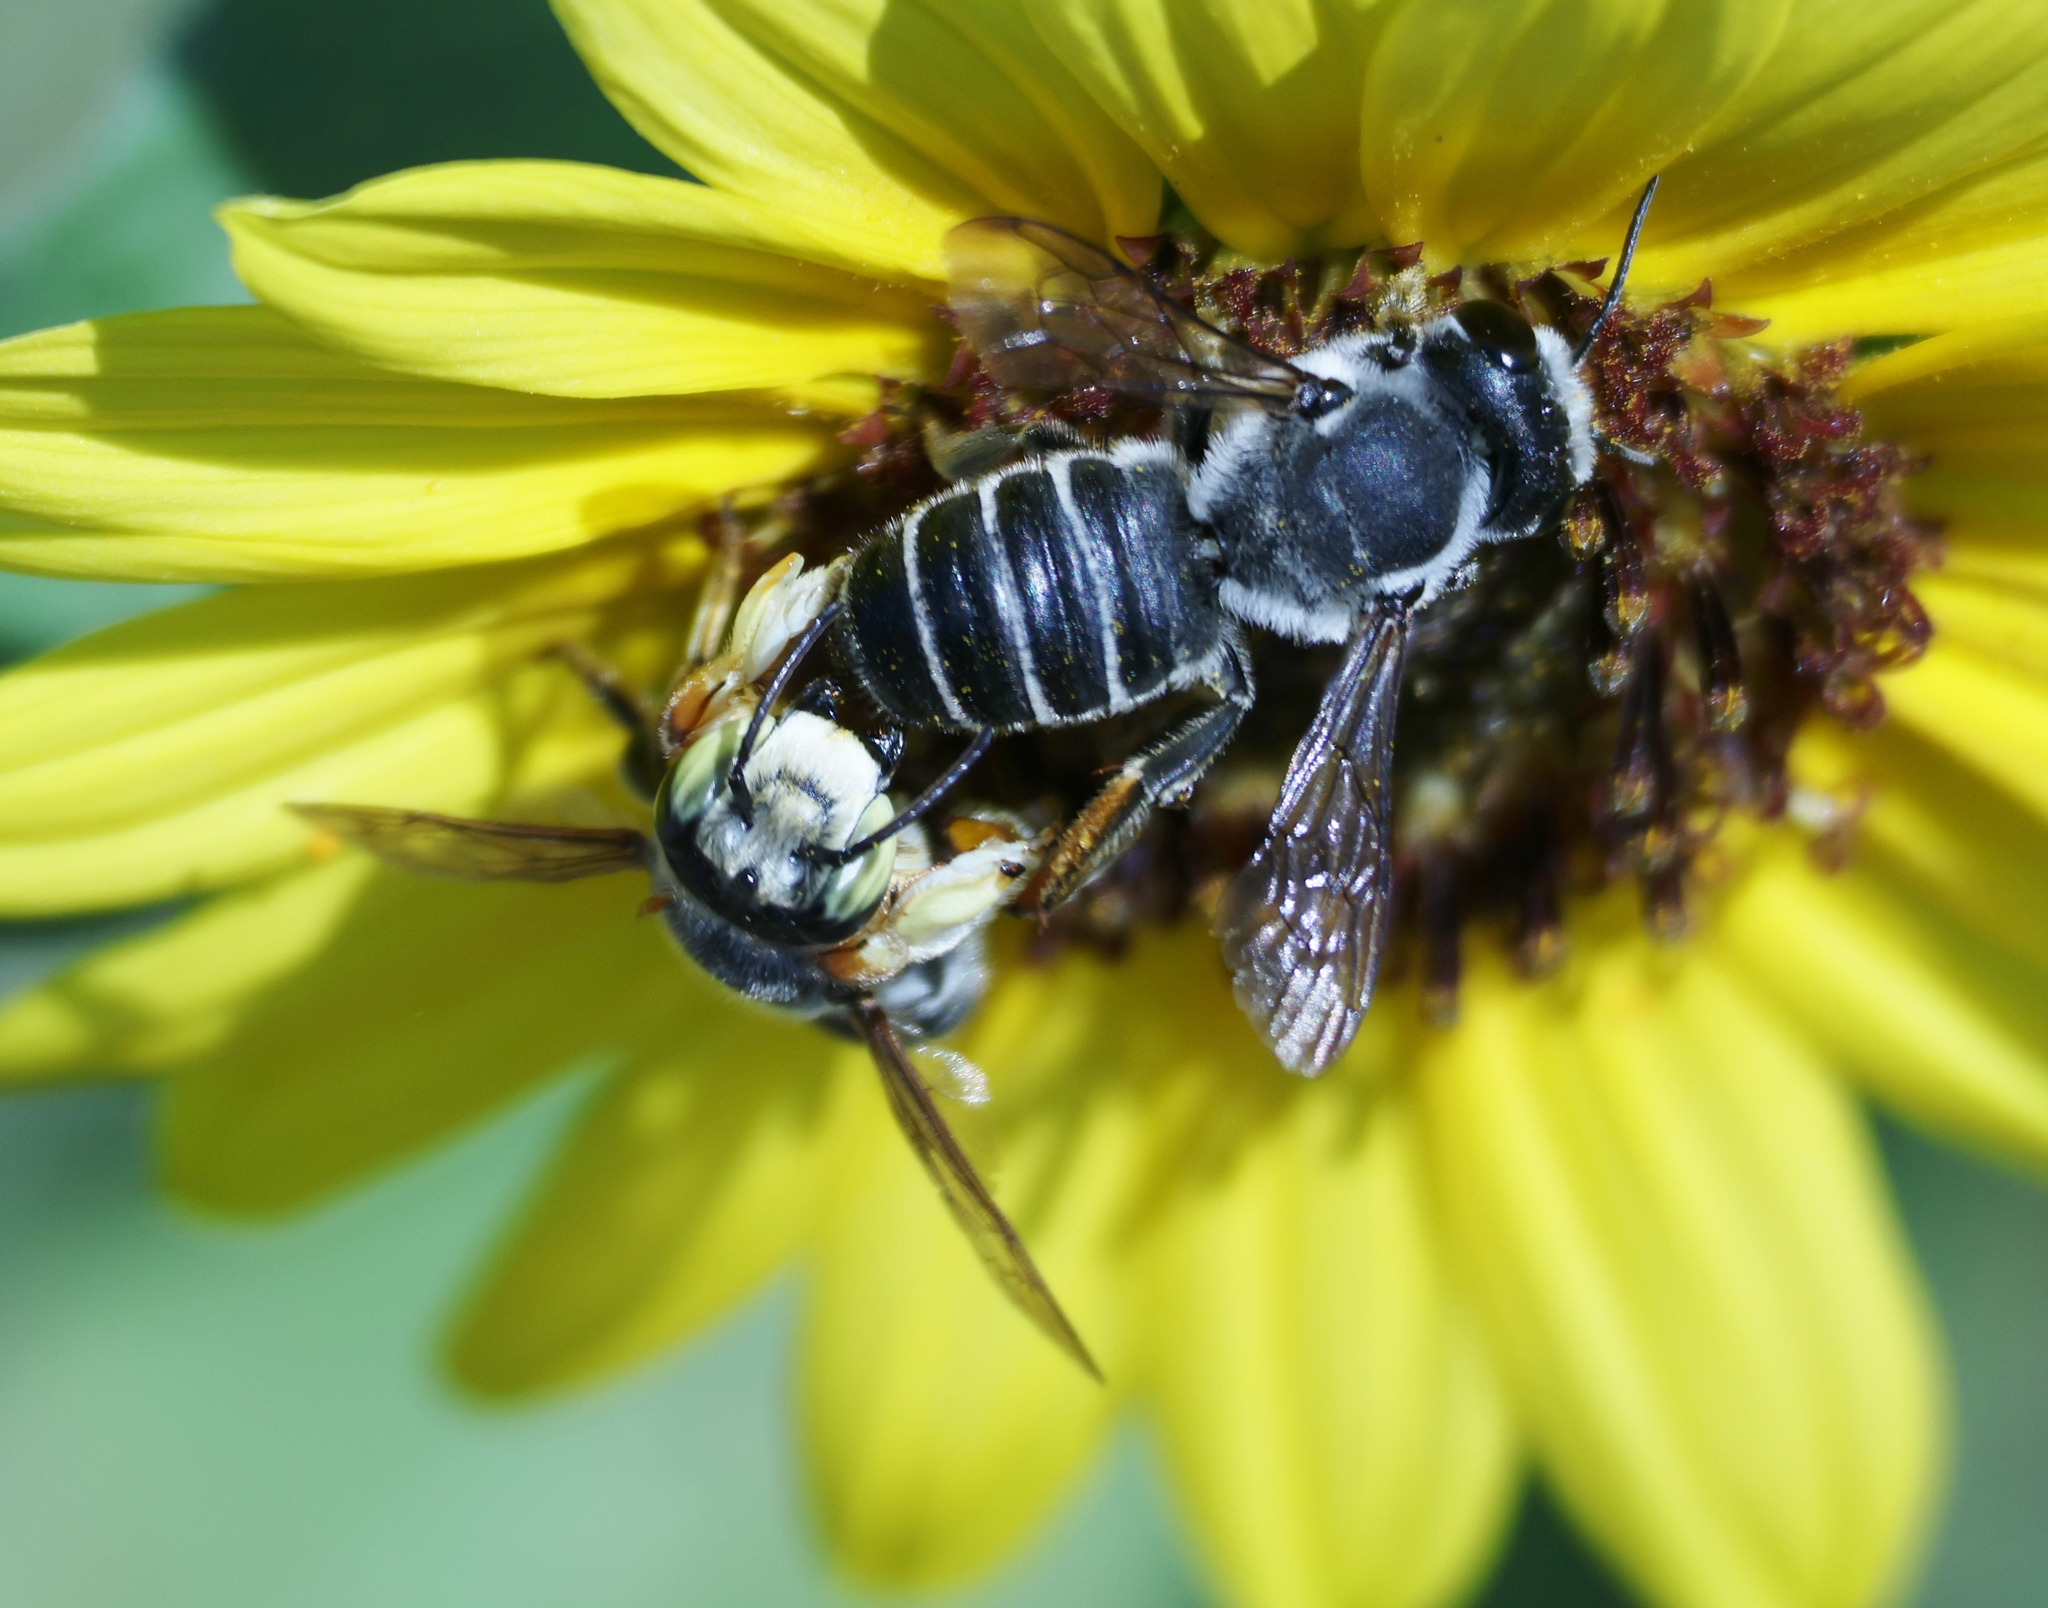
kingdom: Animalia
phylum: Arthropoda
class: Insecta
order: Hymenoptera
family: Megachilidae
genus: Megachile
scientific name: Megachile policaris
